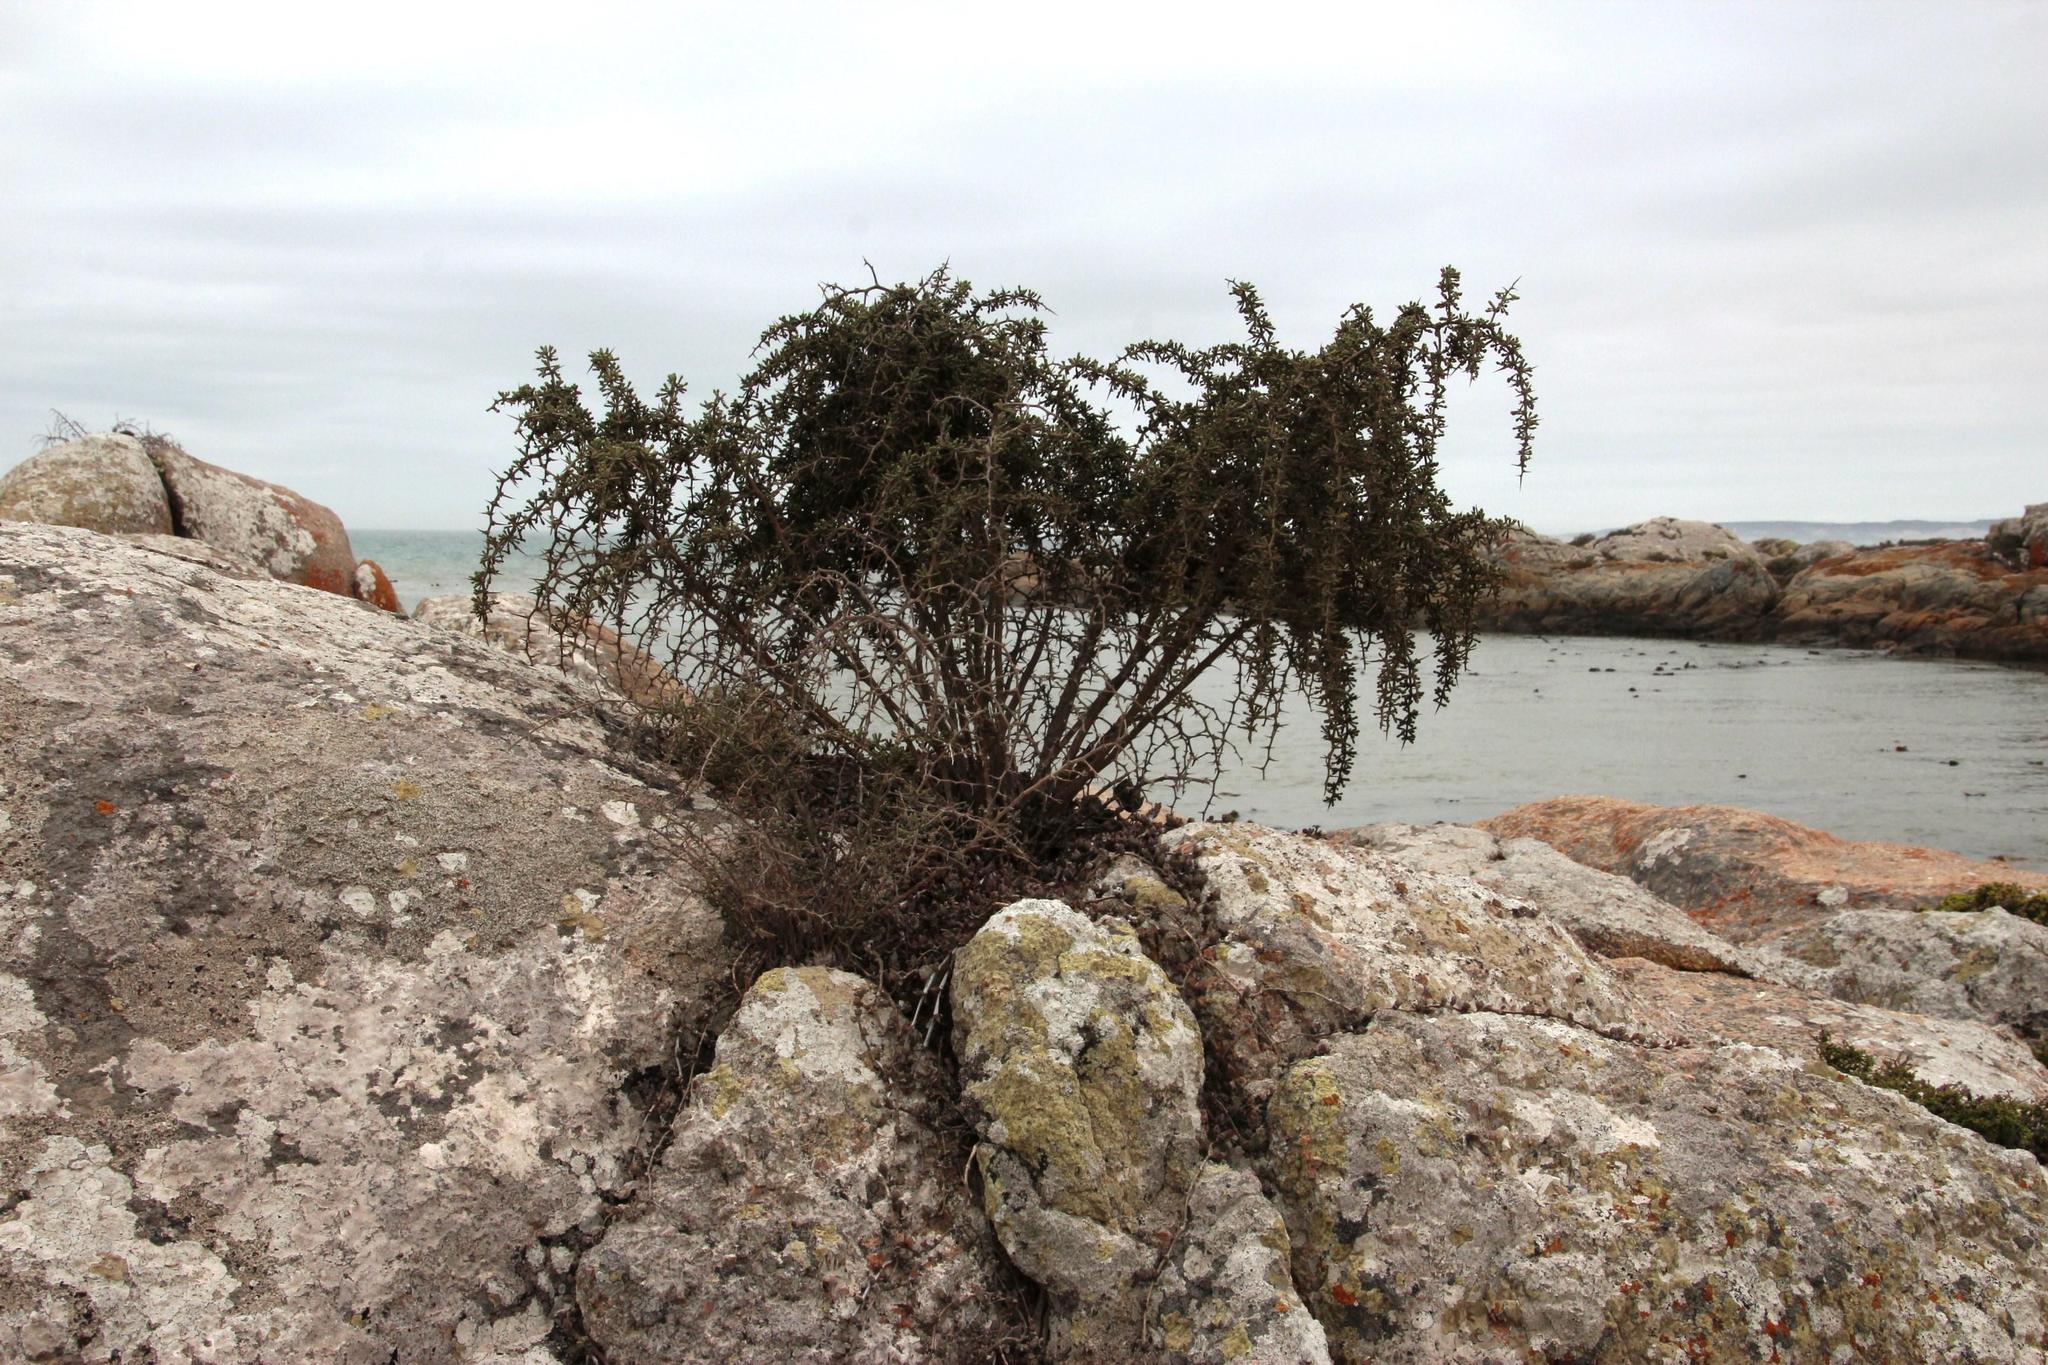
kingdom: Plantae
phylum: Tracheophyta
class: Liliopsida
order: Asparagales
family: Asparagaceae
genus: Asparagus
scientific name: Asparagus capensis
